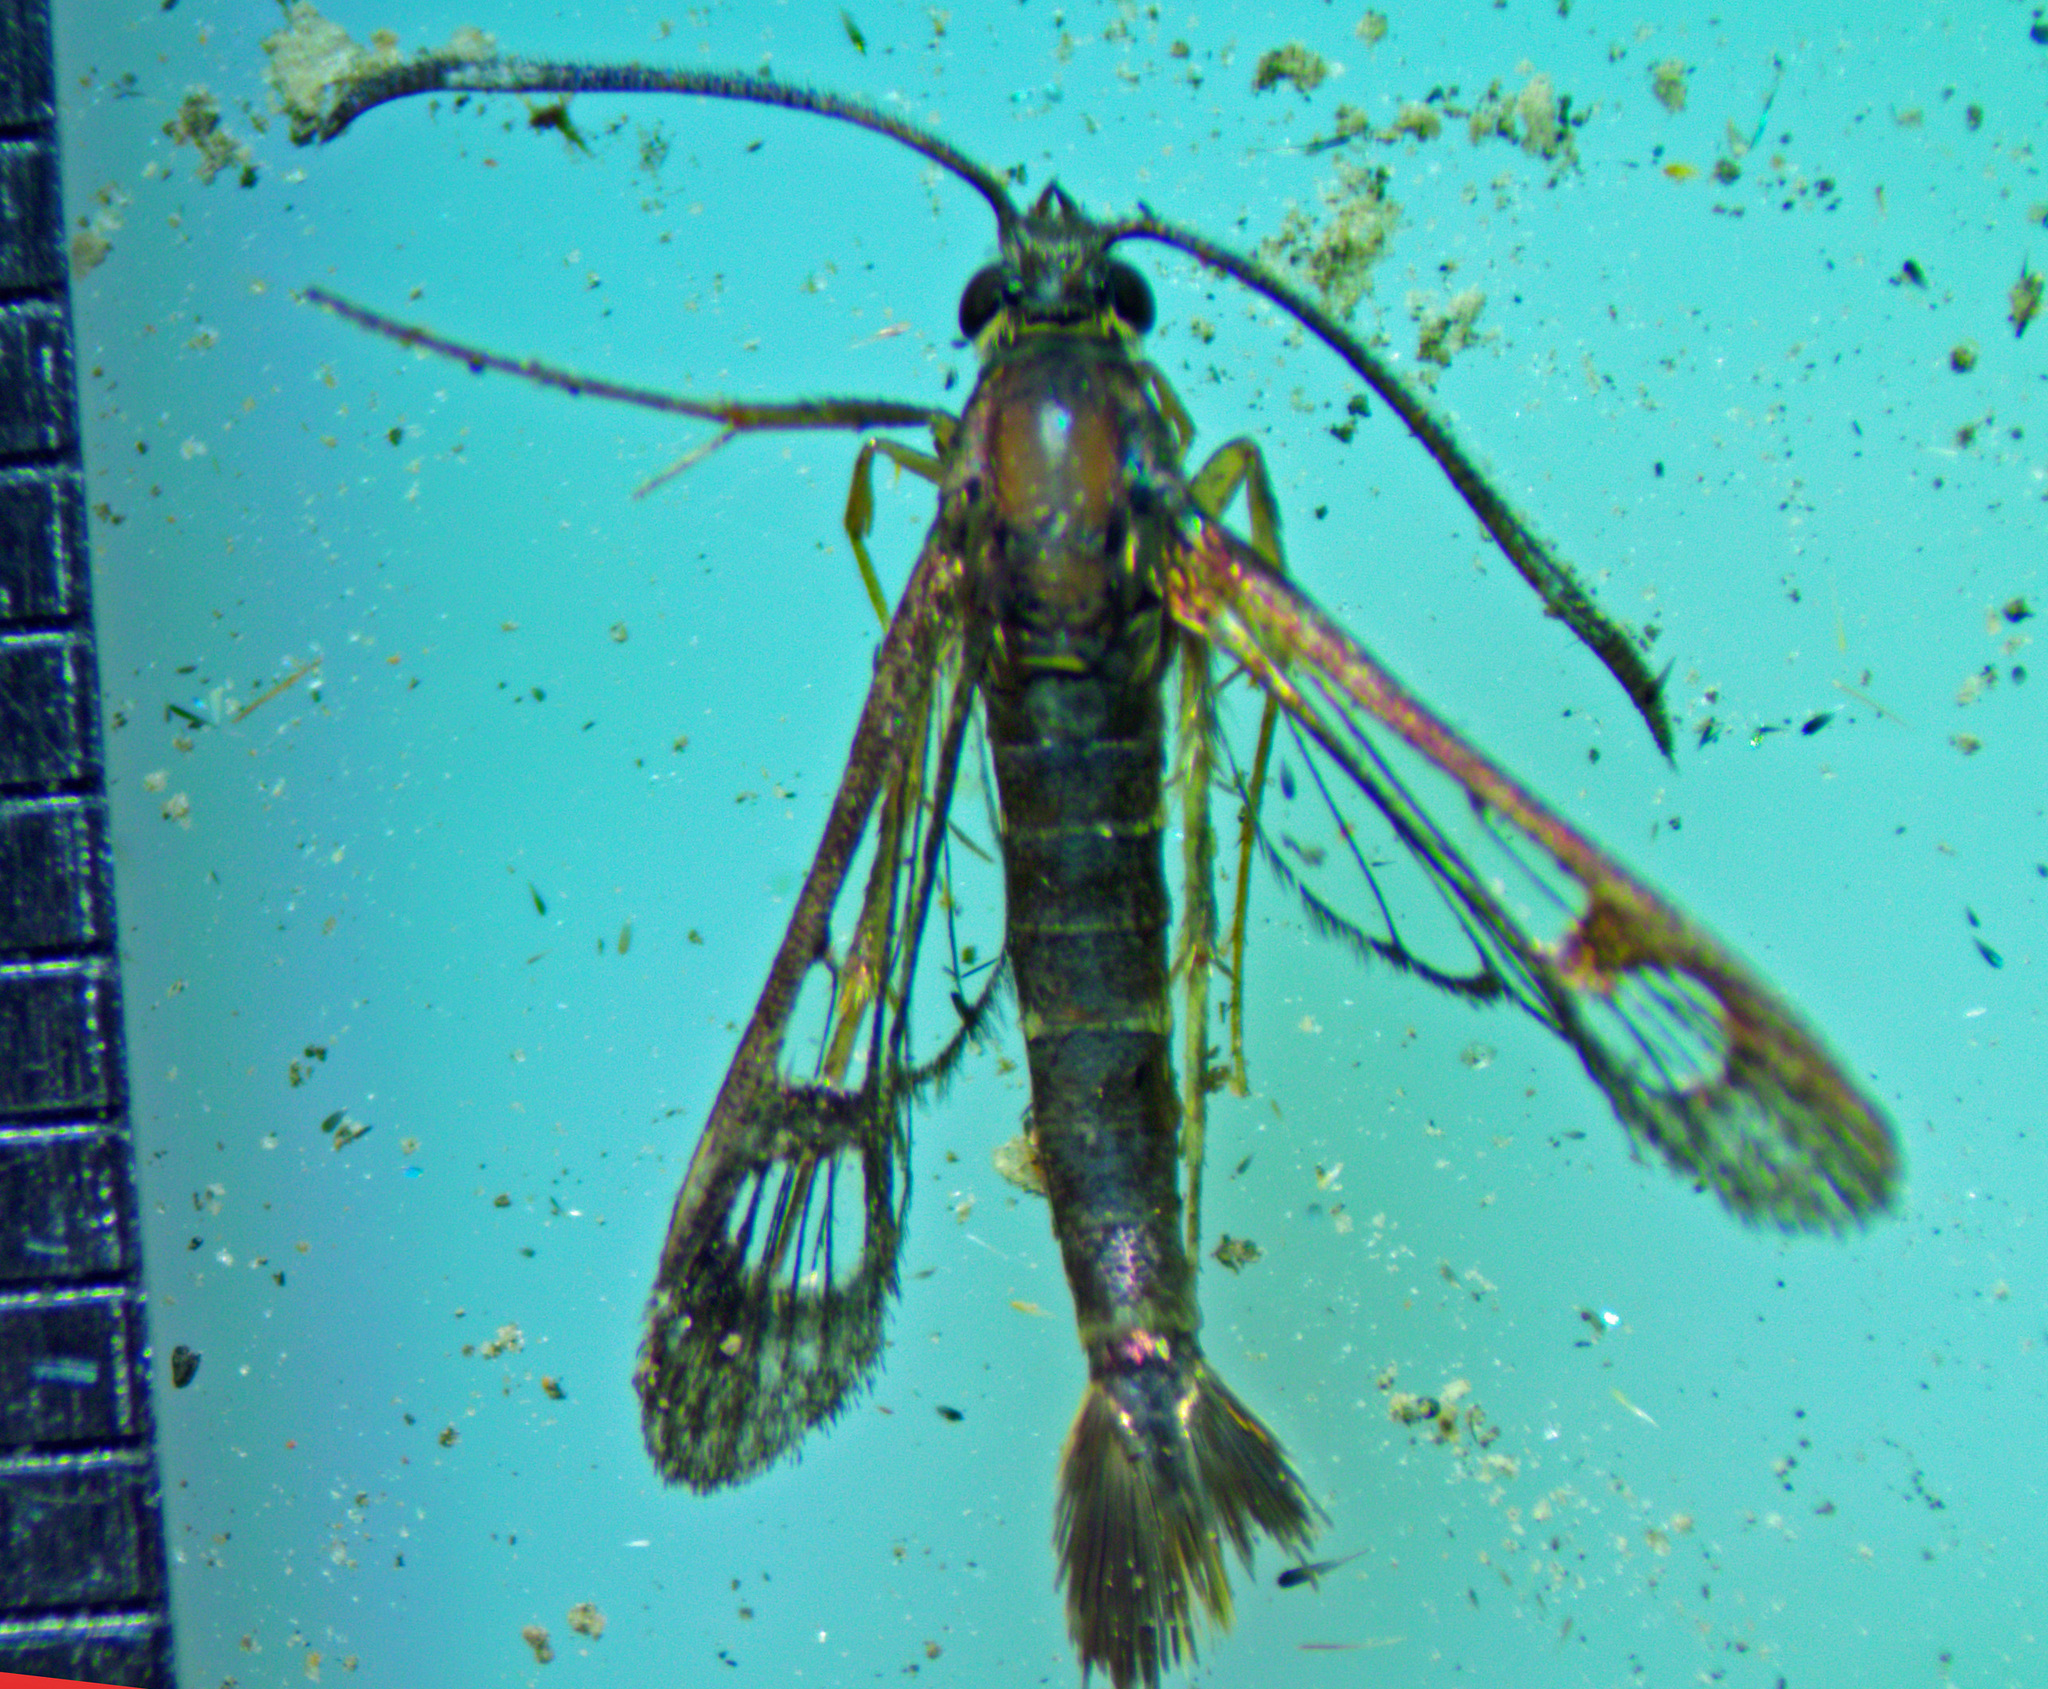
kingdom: Animalia
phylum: Arthropoda
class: Insecta
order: Lepidoptera
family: Sesiidae
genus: Synanthedon
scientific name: Synanthedon acerrubri
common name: Maple clearwing moth
